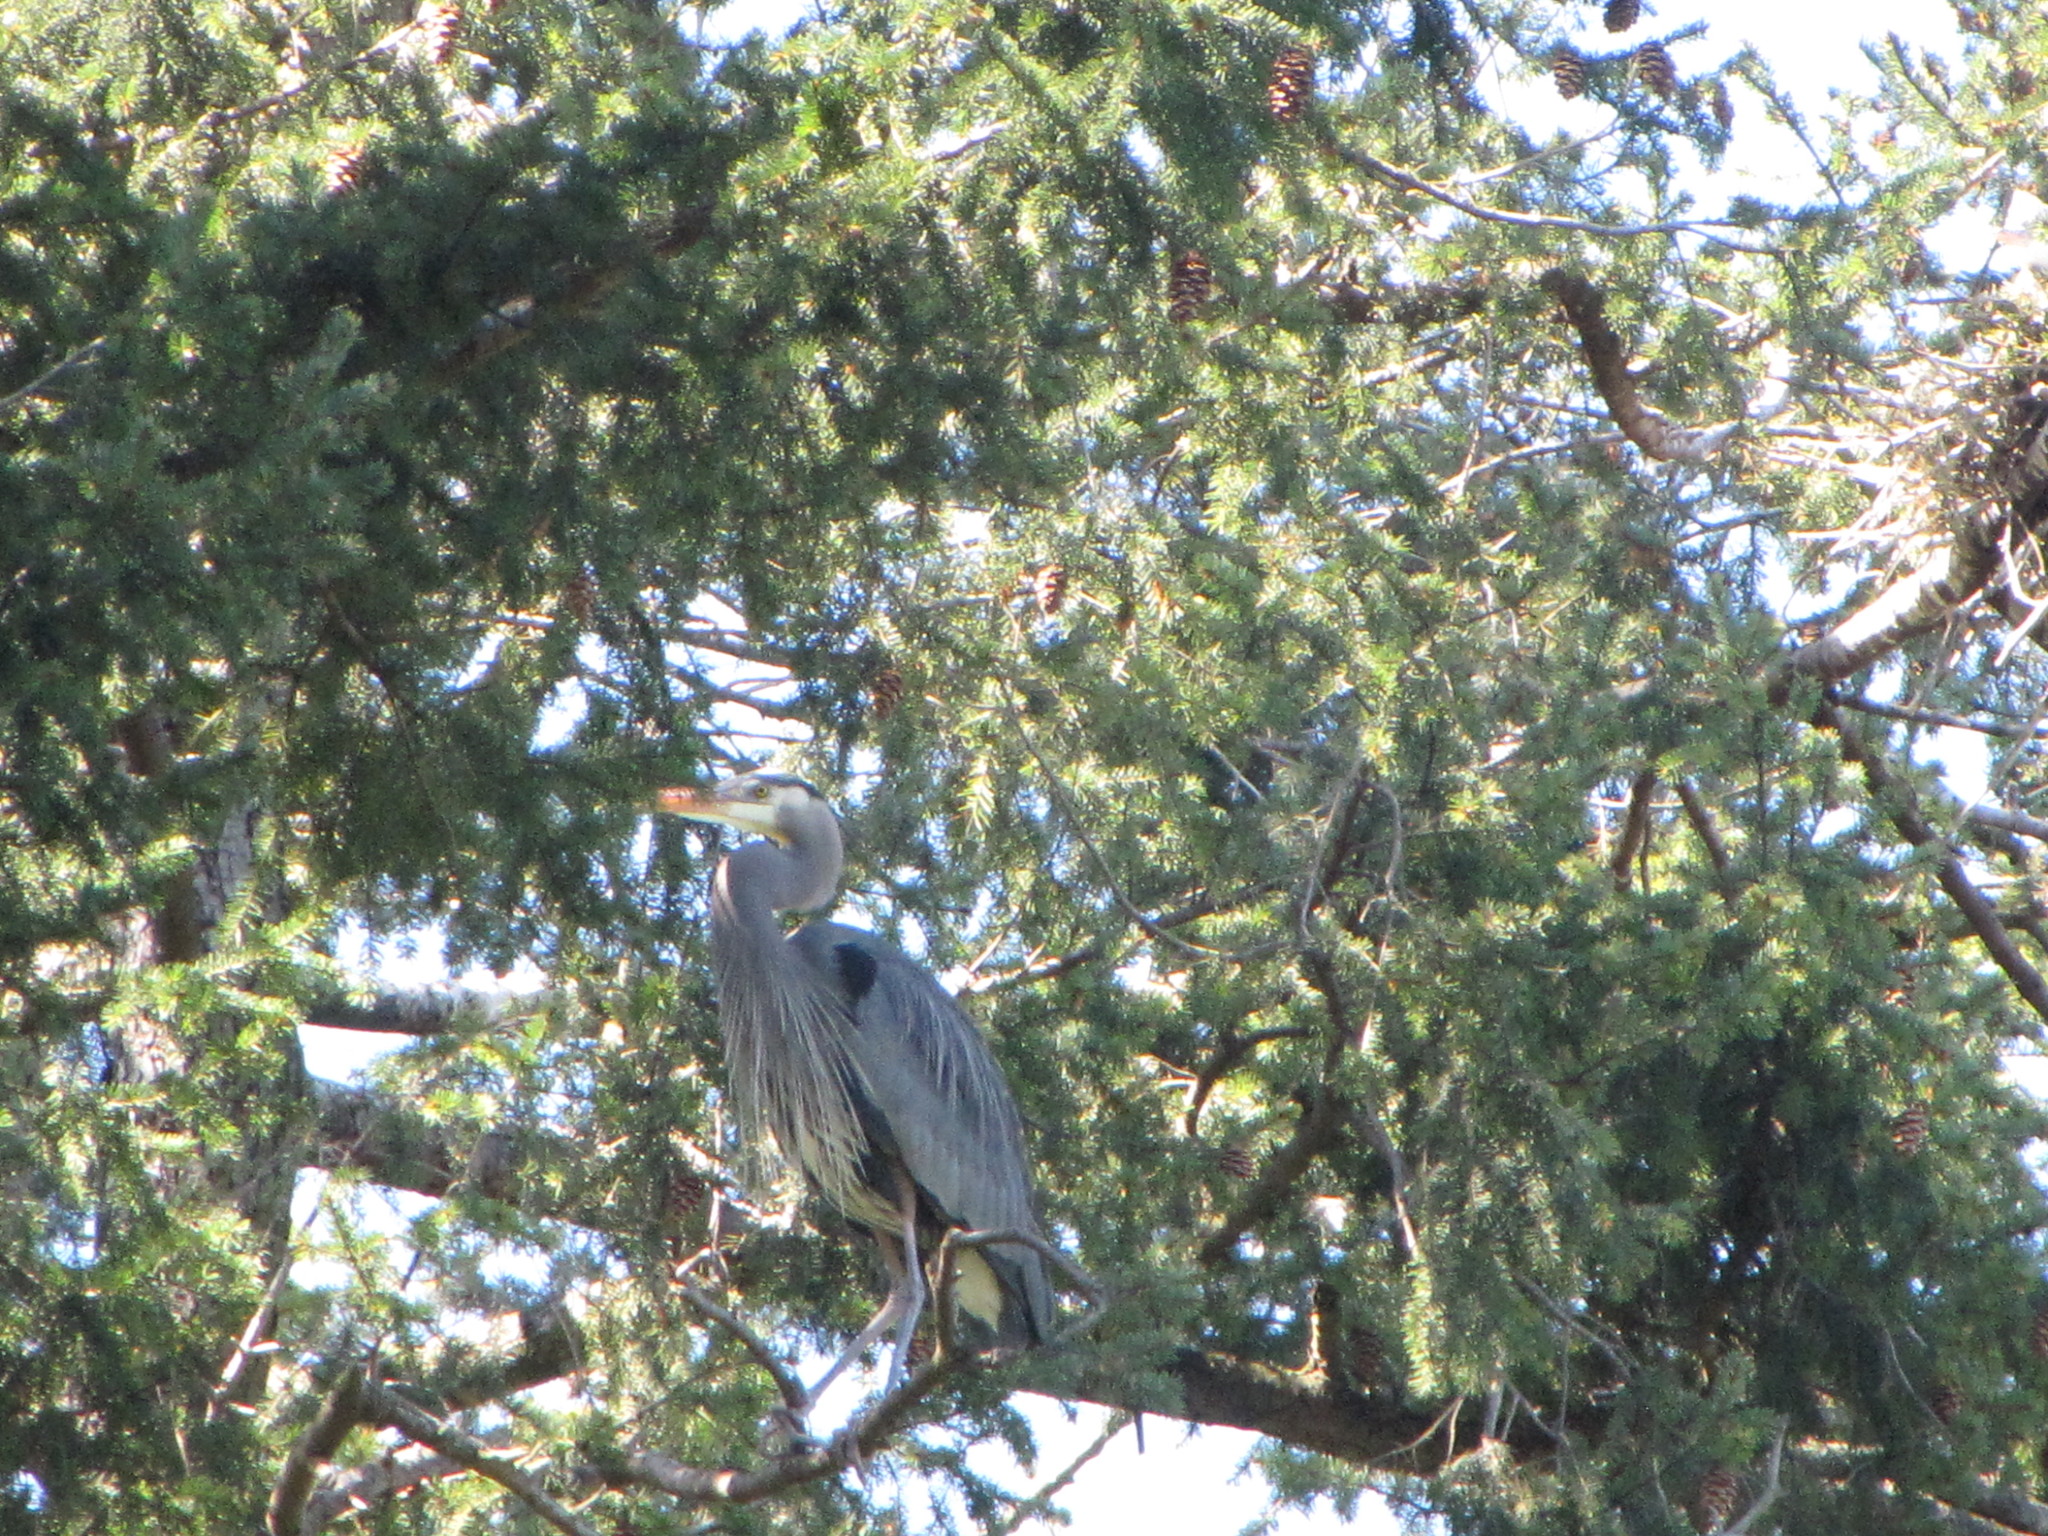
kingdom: Animalia
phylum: Chordata
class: Aves
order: Pelecaniformes
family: Ardeidae
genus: Ardea
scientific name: Ardea herodias
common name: Great blue heron
